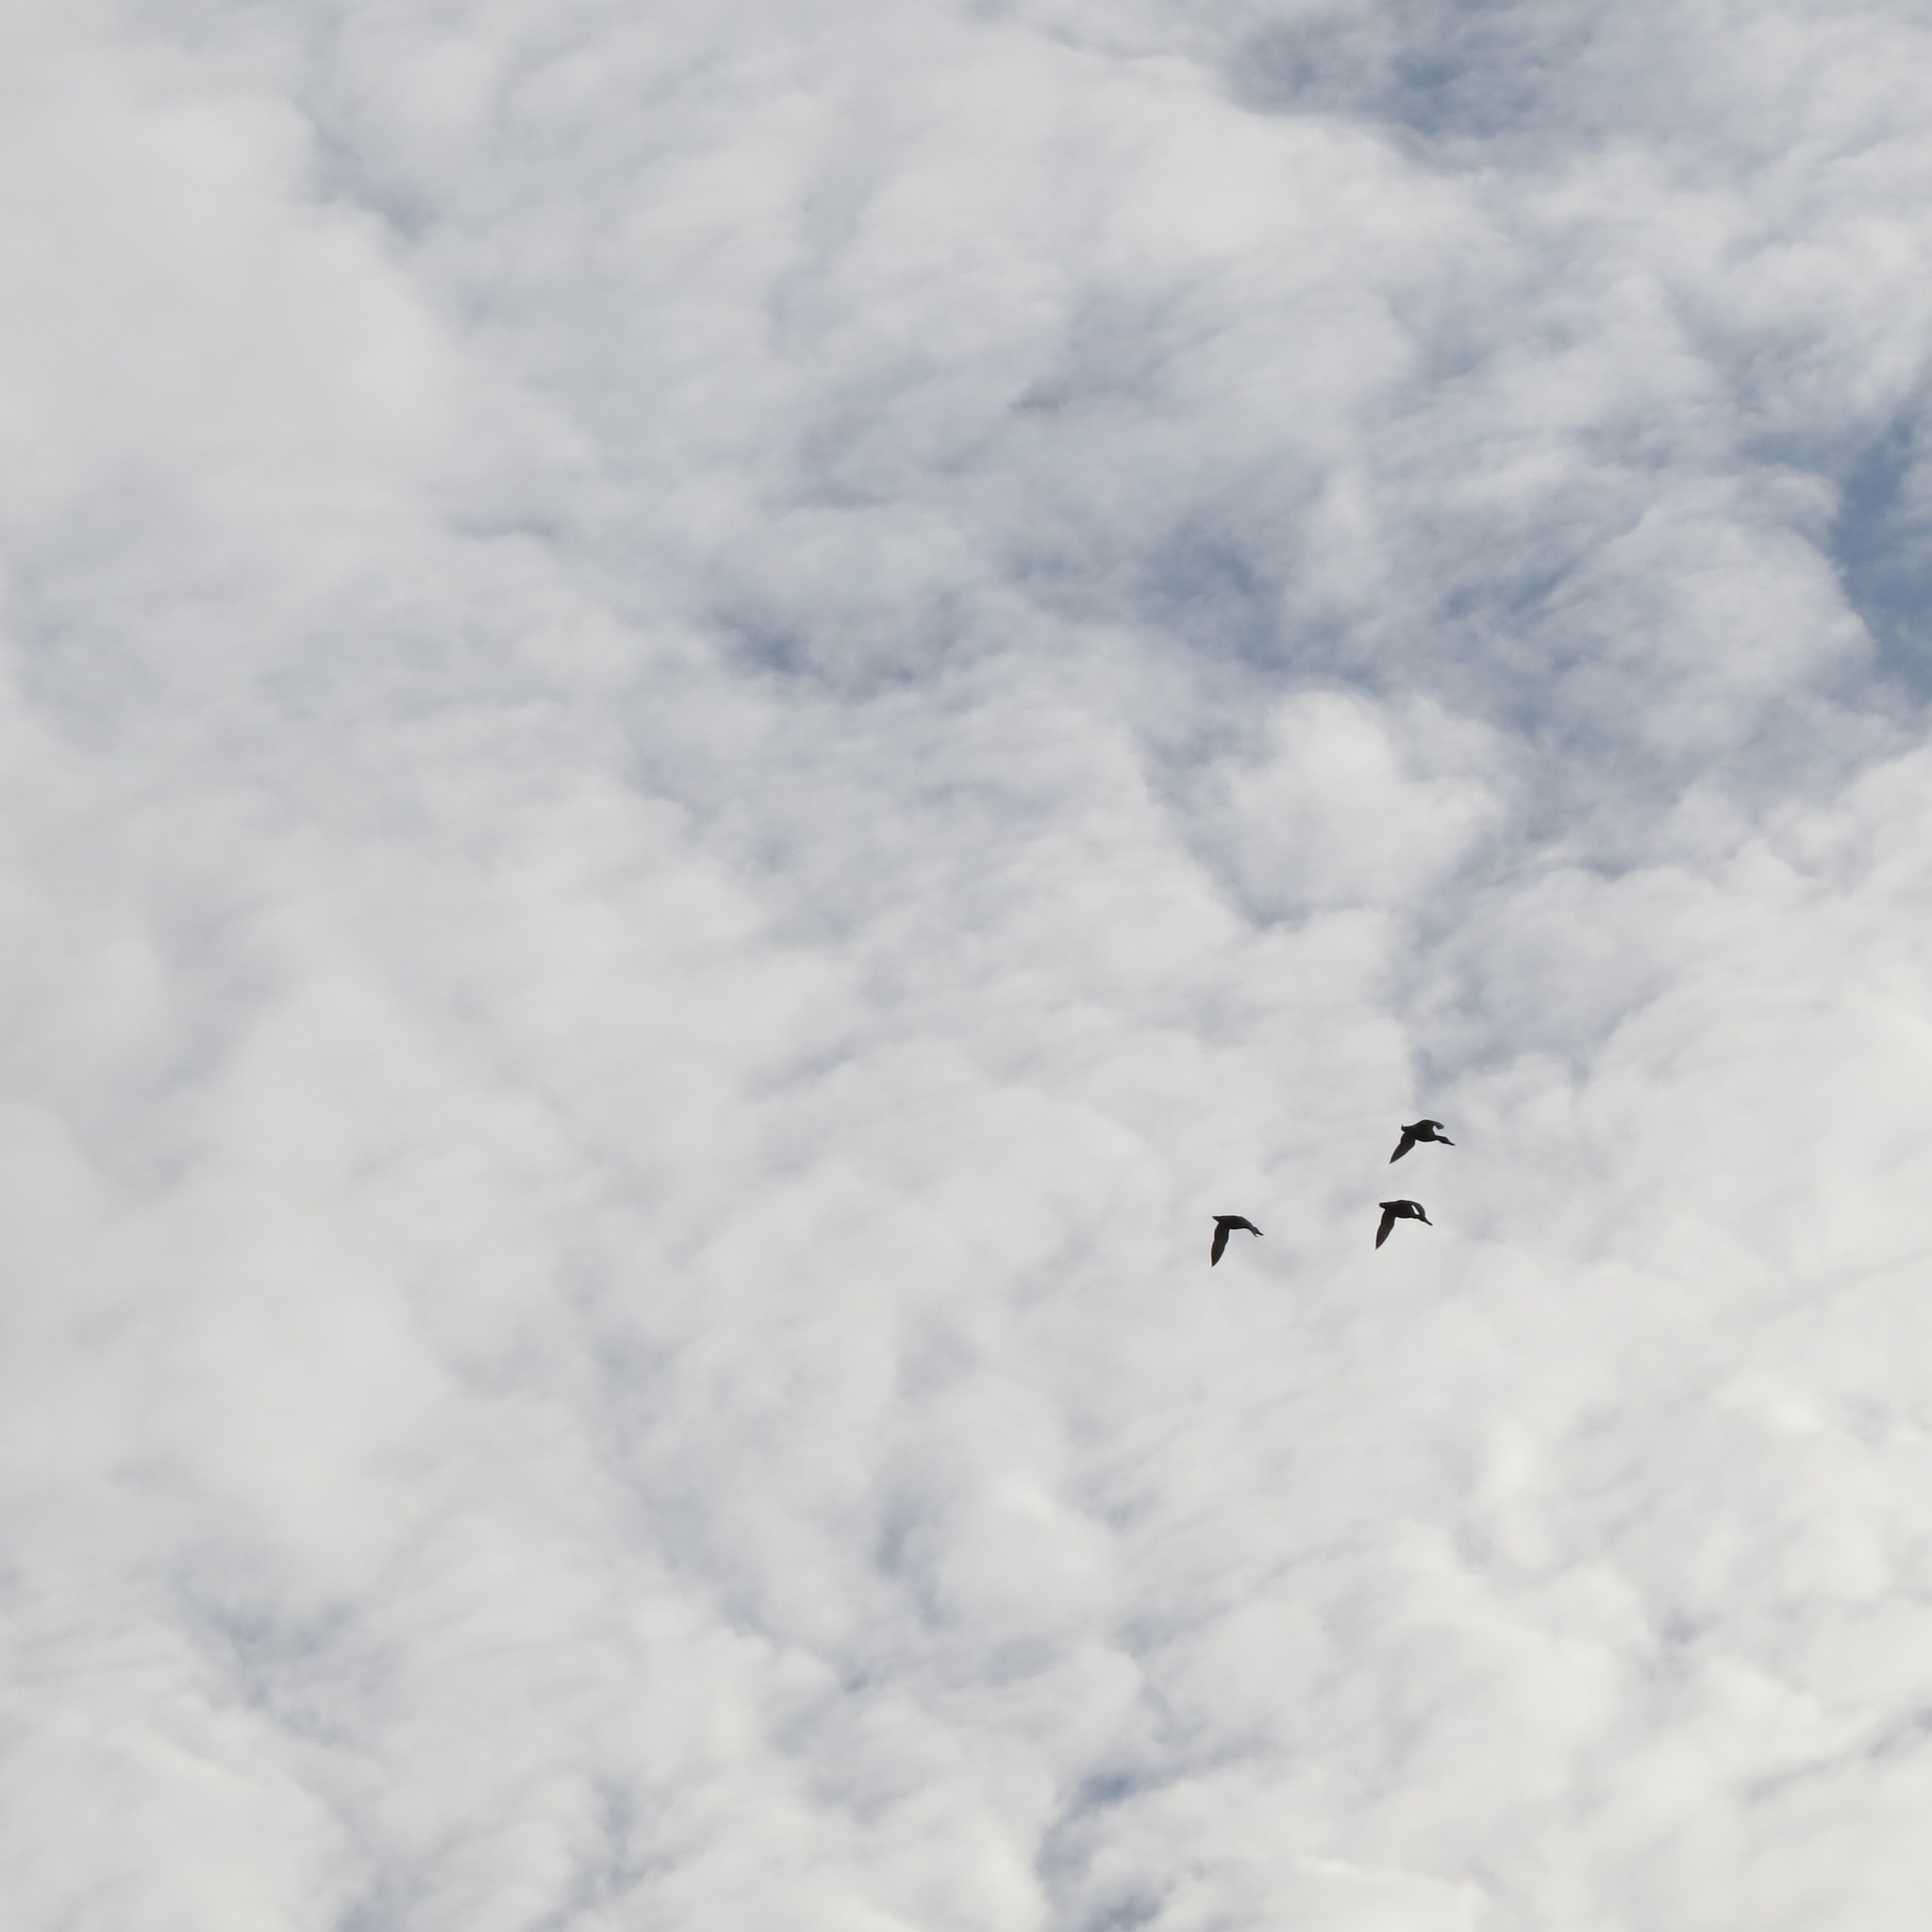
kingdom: Animalia
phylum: Chordata
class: Aves
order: Anseriformes
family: Anatidae
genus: Anas
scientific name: Anas platyrhynchos
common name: Mallard
